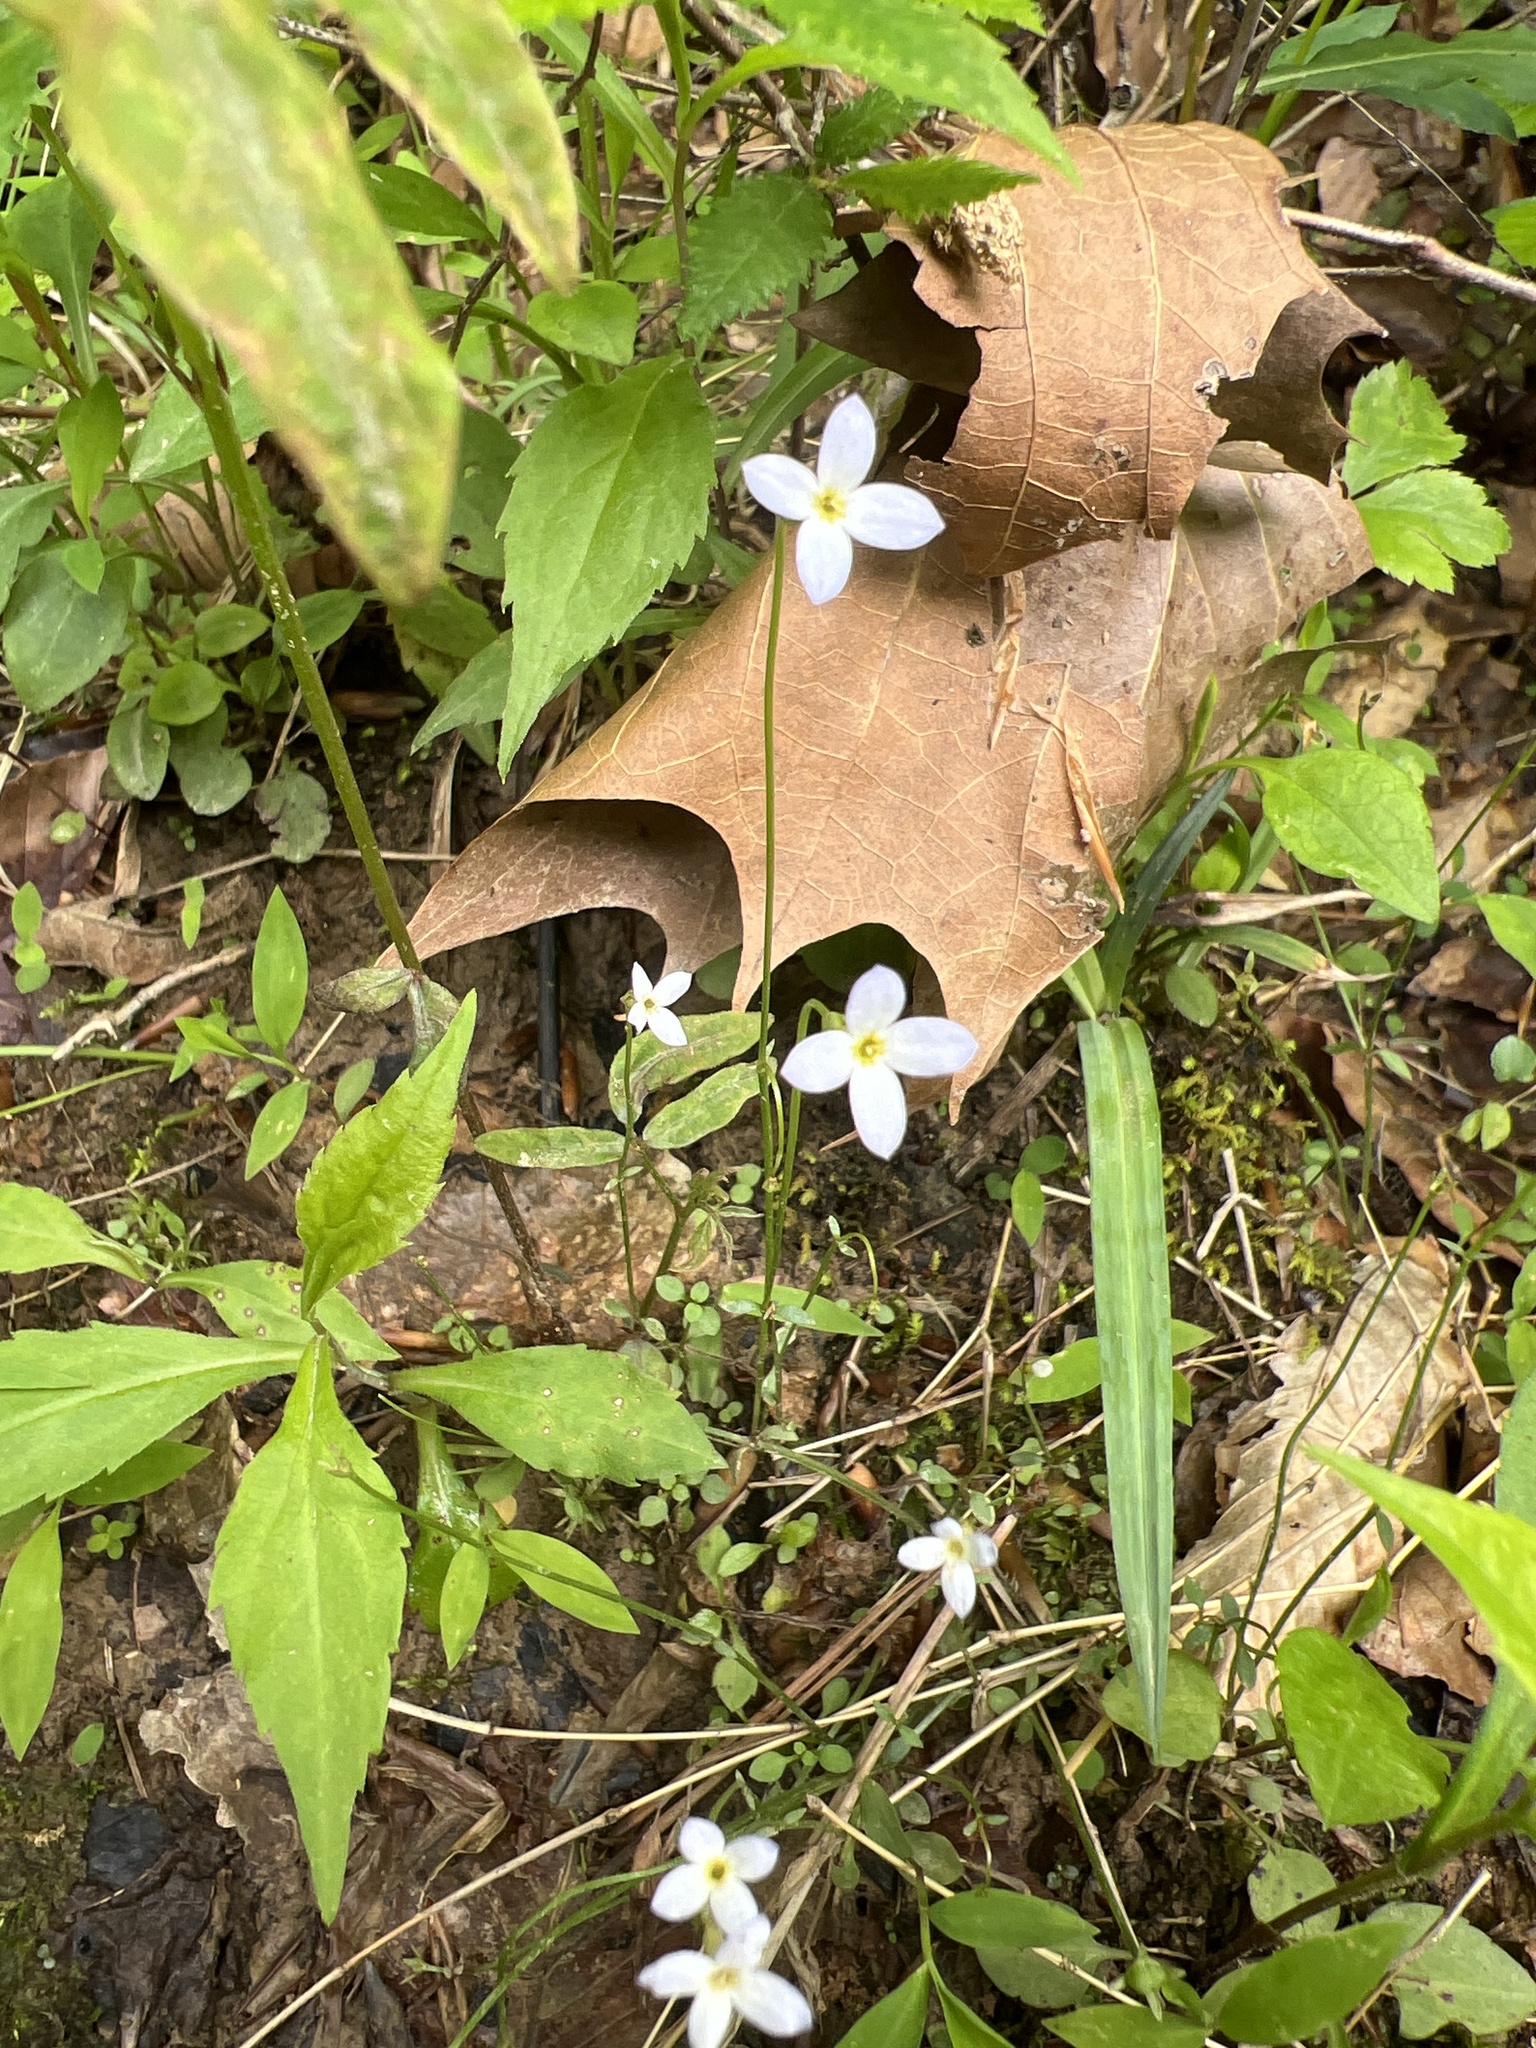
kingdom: Plantae
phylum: Tracheophyta
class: Magnoliopsida
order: Gentianales
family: Rubiaceae
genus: Houstonia
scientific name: Houstonia caerulea
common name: Bluets
